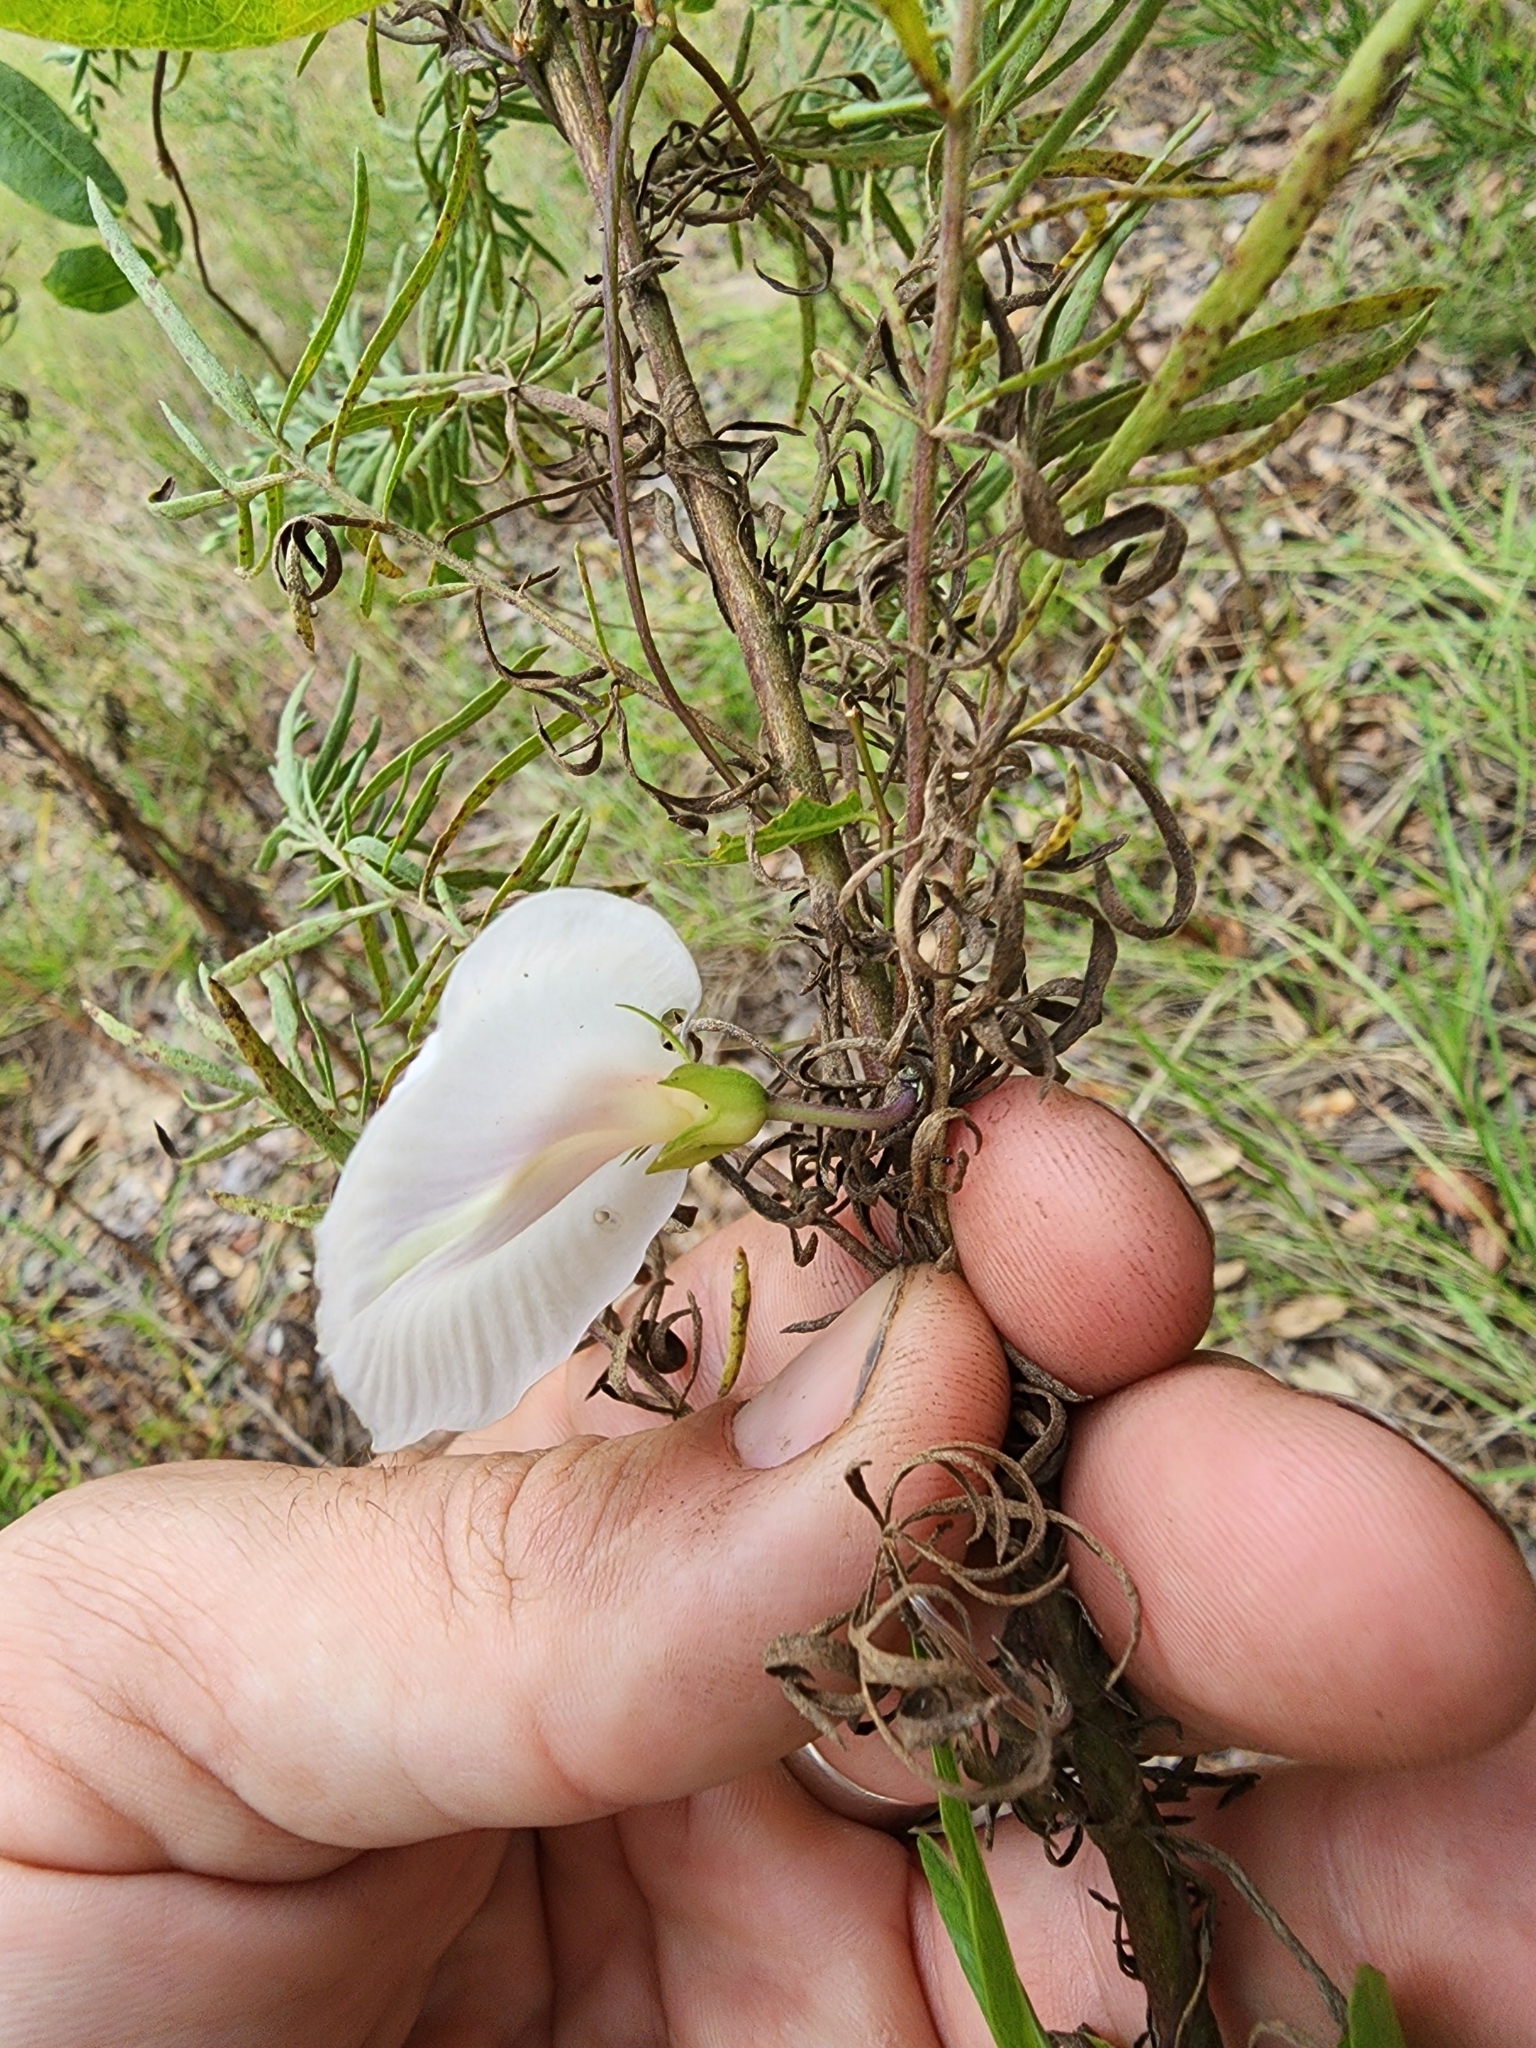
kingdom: Plantae
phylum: Tracheophyta
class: Magnoliopsida
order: Fabales
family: Fabaceae
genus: Centrosema
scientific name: Centrosema arenicola
